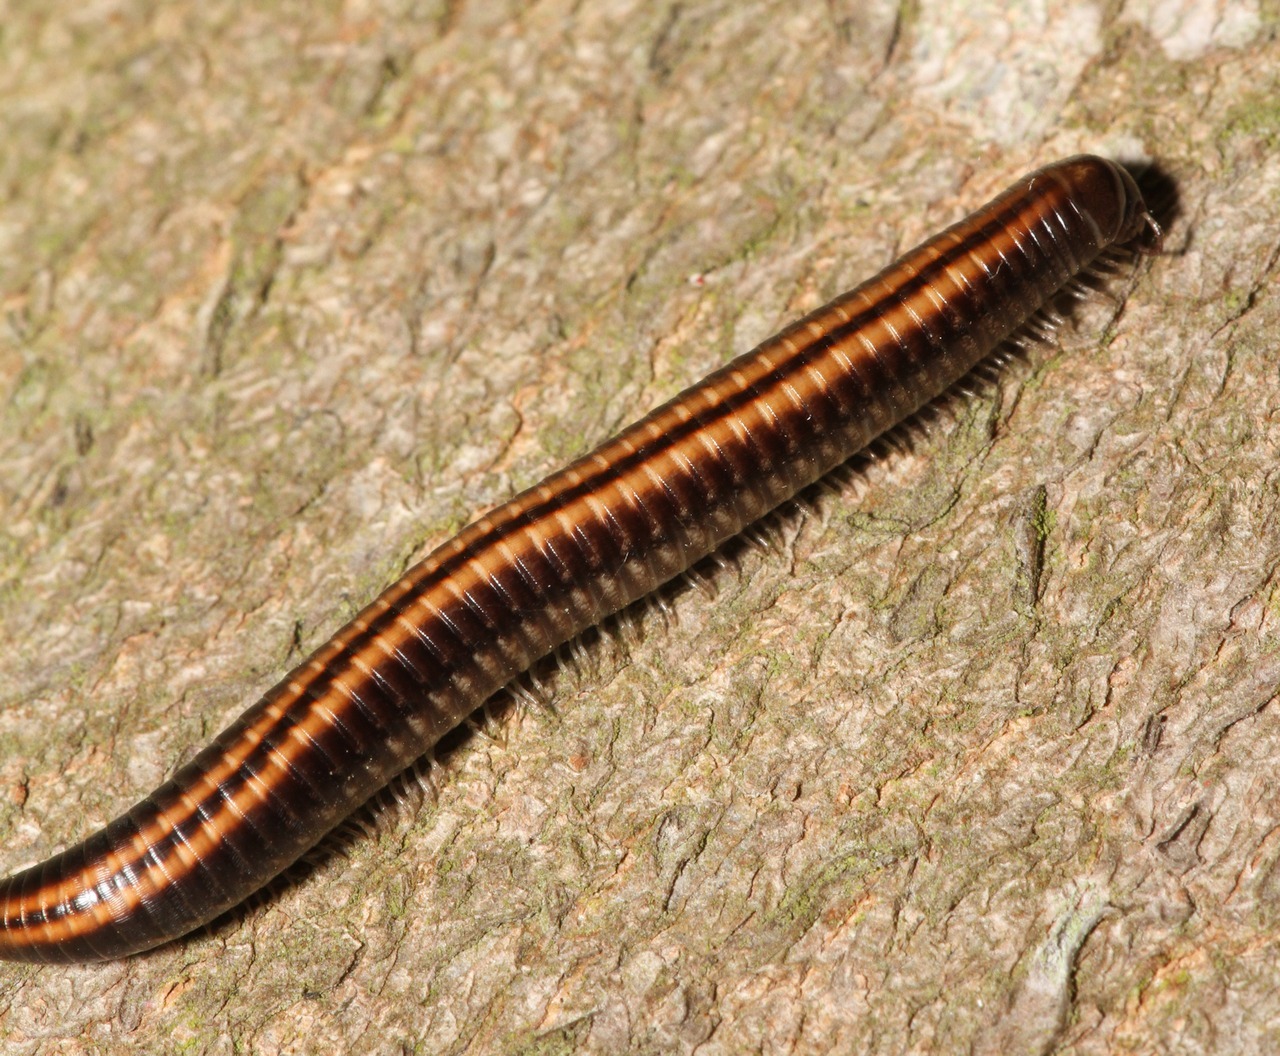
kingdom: Animalia
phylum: Arthropoda
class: Diplopoda
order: Julida
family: Julidae
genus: Ommatoiulus
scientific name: Ommatoiulus sabulosus
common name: Striped millipede
